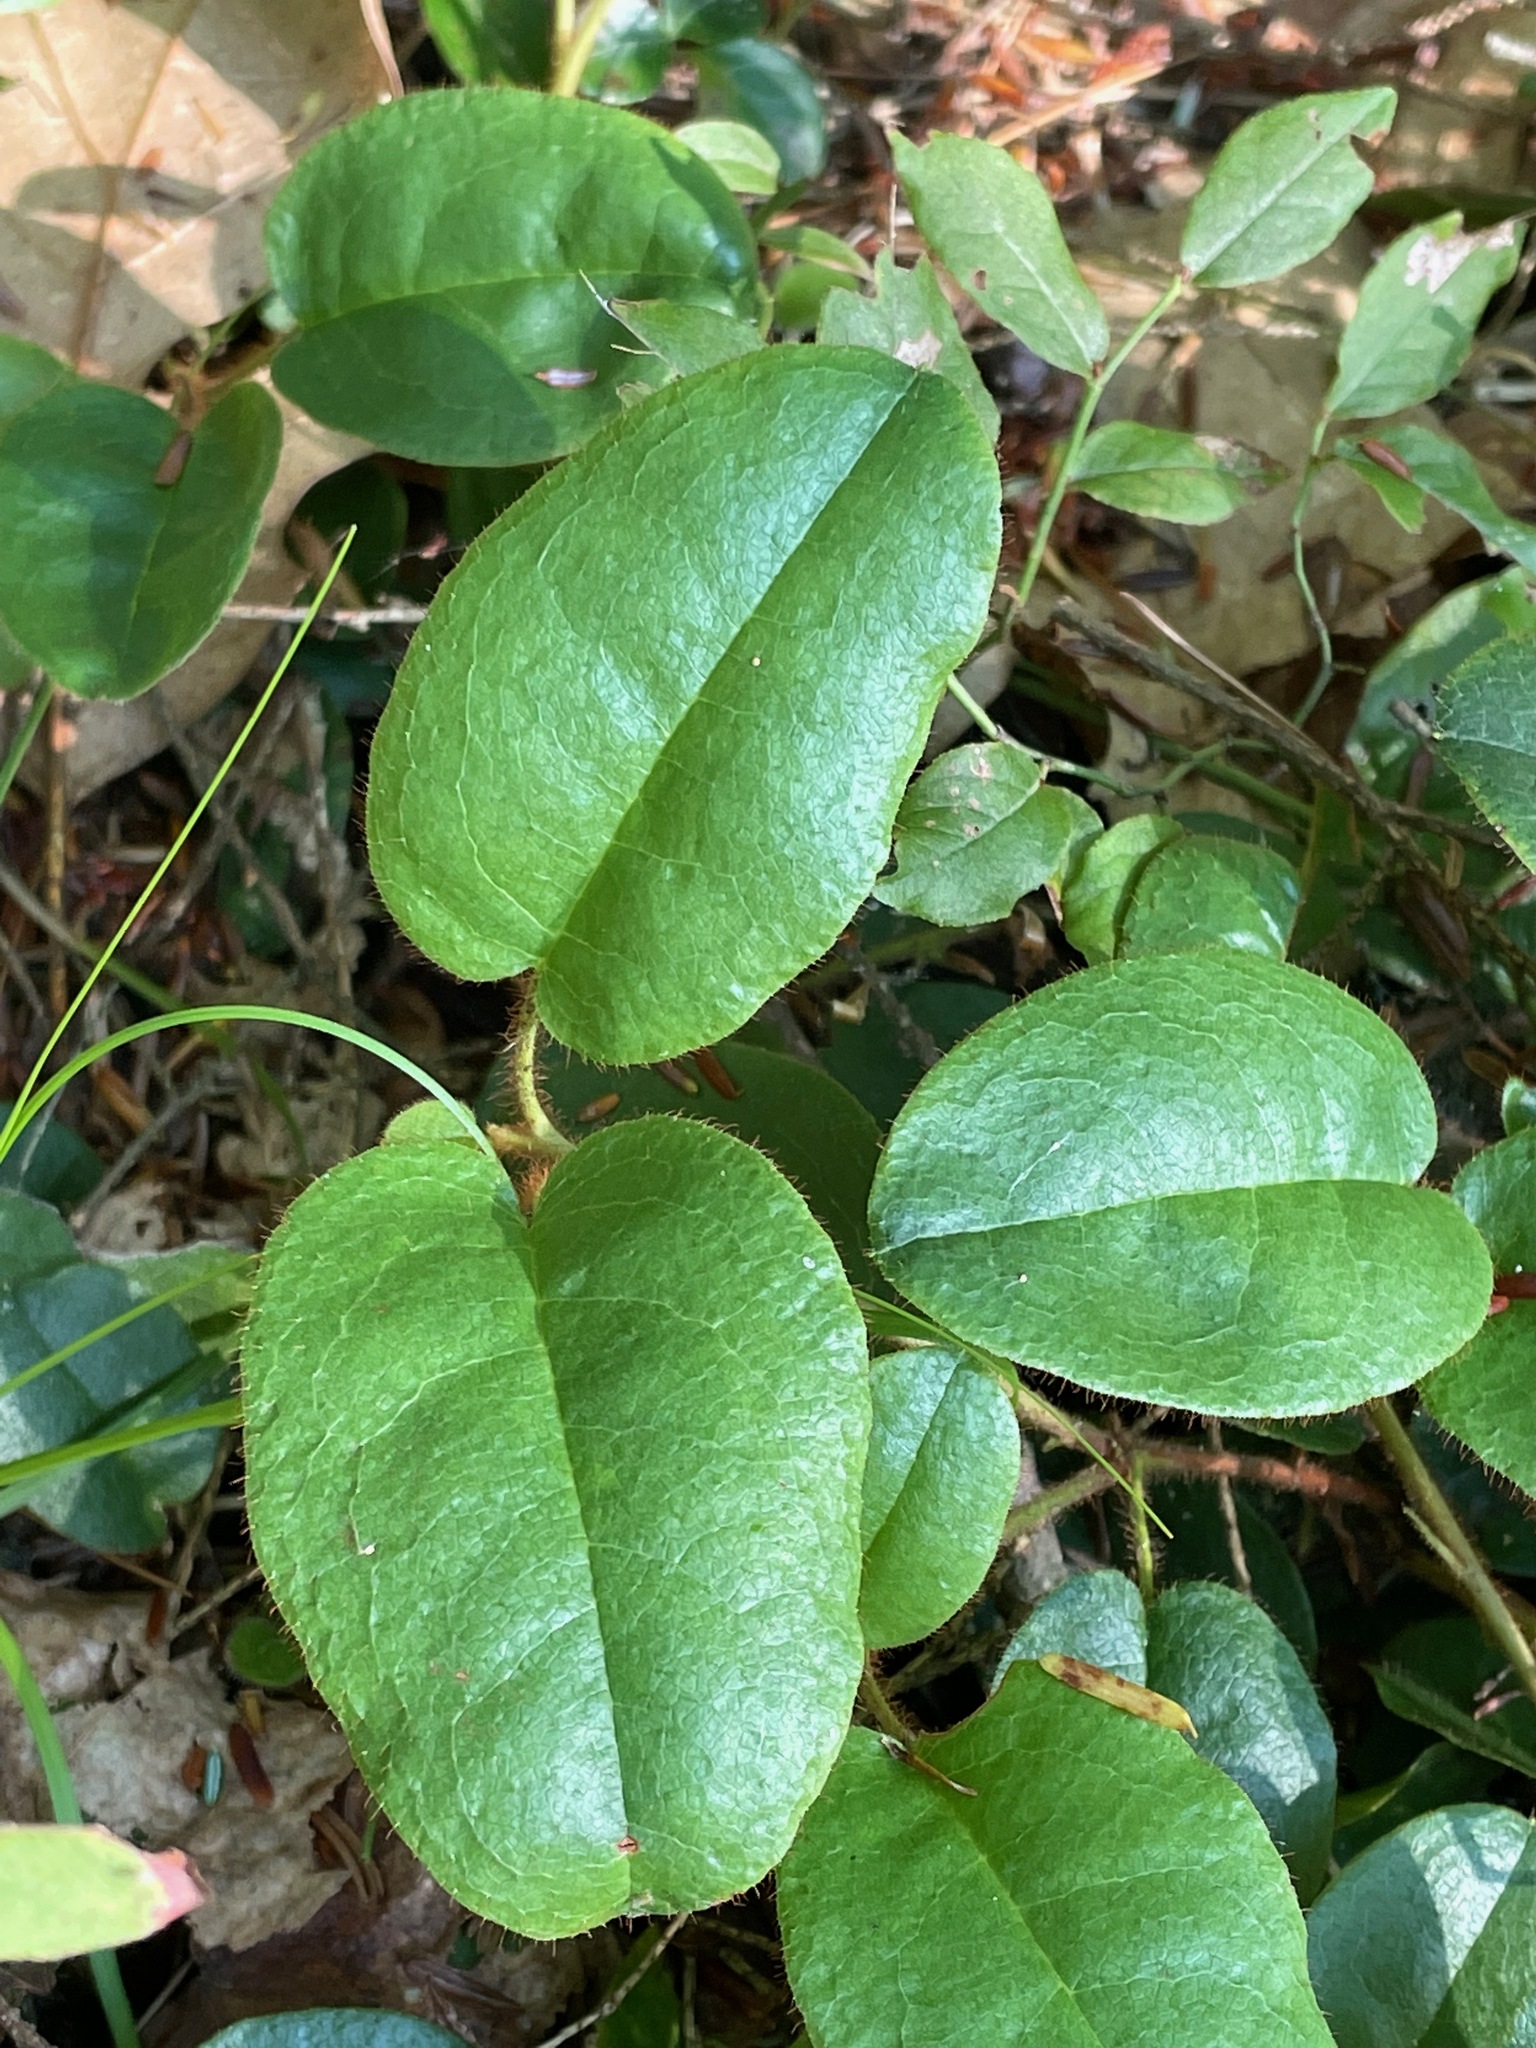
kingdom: Plantae
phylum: Tracheophyta
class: Magnoliopsida
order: Ericales
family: Ericaceae
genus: Epigaea
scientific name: Epigaea repens
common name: Gravelroot
